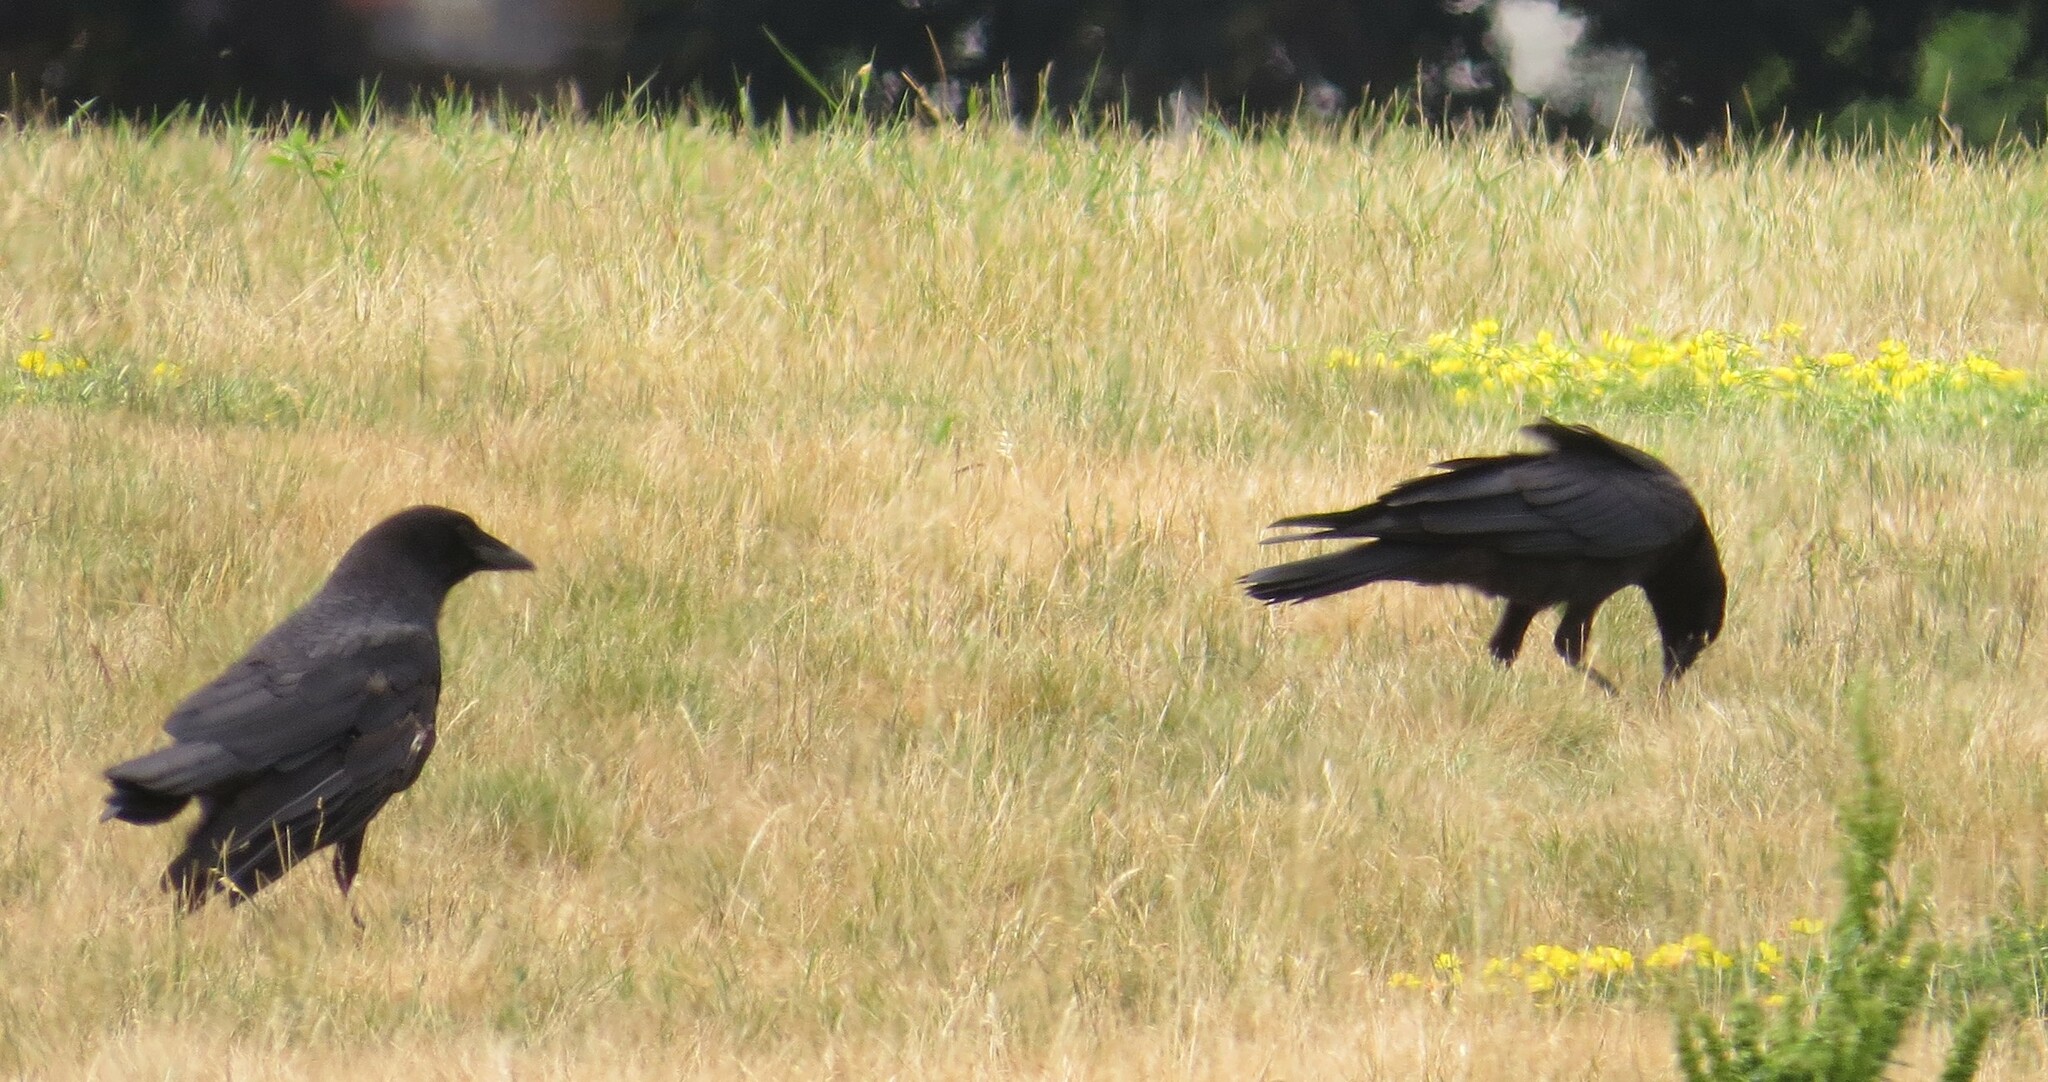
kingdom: Animalia
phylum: Chordata
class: Aves
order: Passeriformes
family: Corvidae
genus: Corvus
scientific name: Corvus brachyrhynchos
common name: American crow
